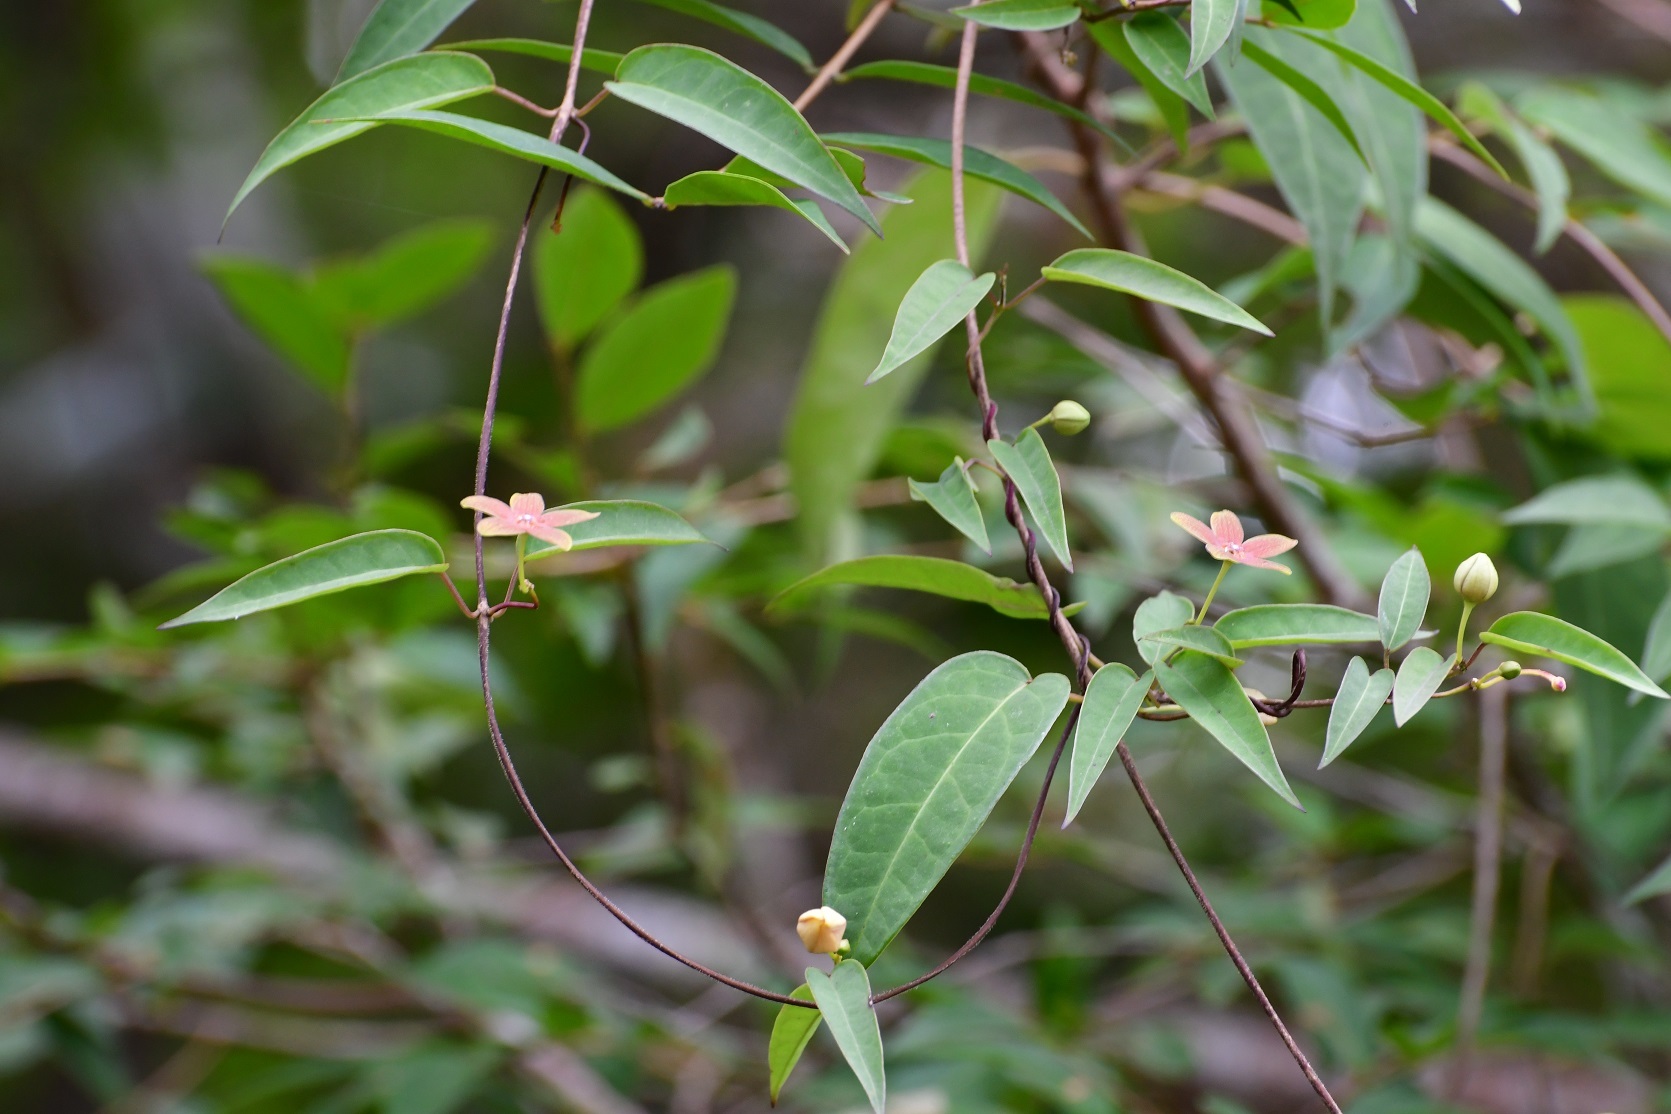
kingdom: Plantae
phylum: Tracheophyta
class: Magnoliopsida
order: Gentianales
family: Apocynaceae
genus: Ruehssia
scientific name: Ruehssia sumiderensis
